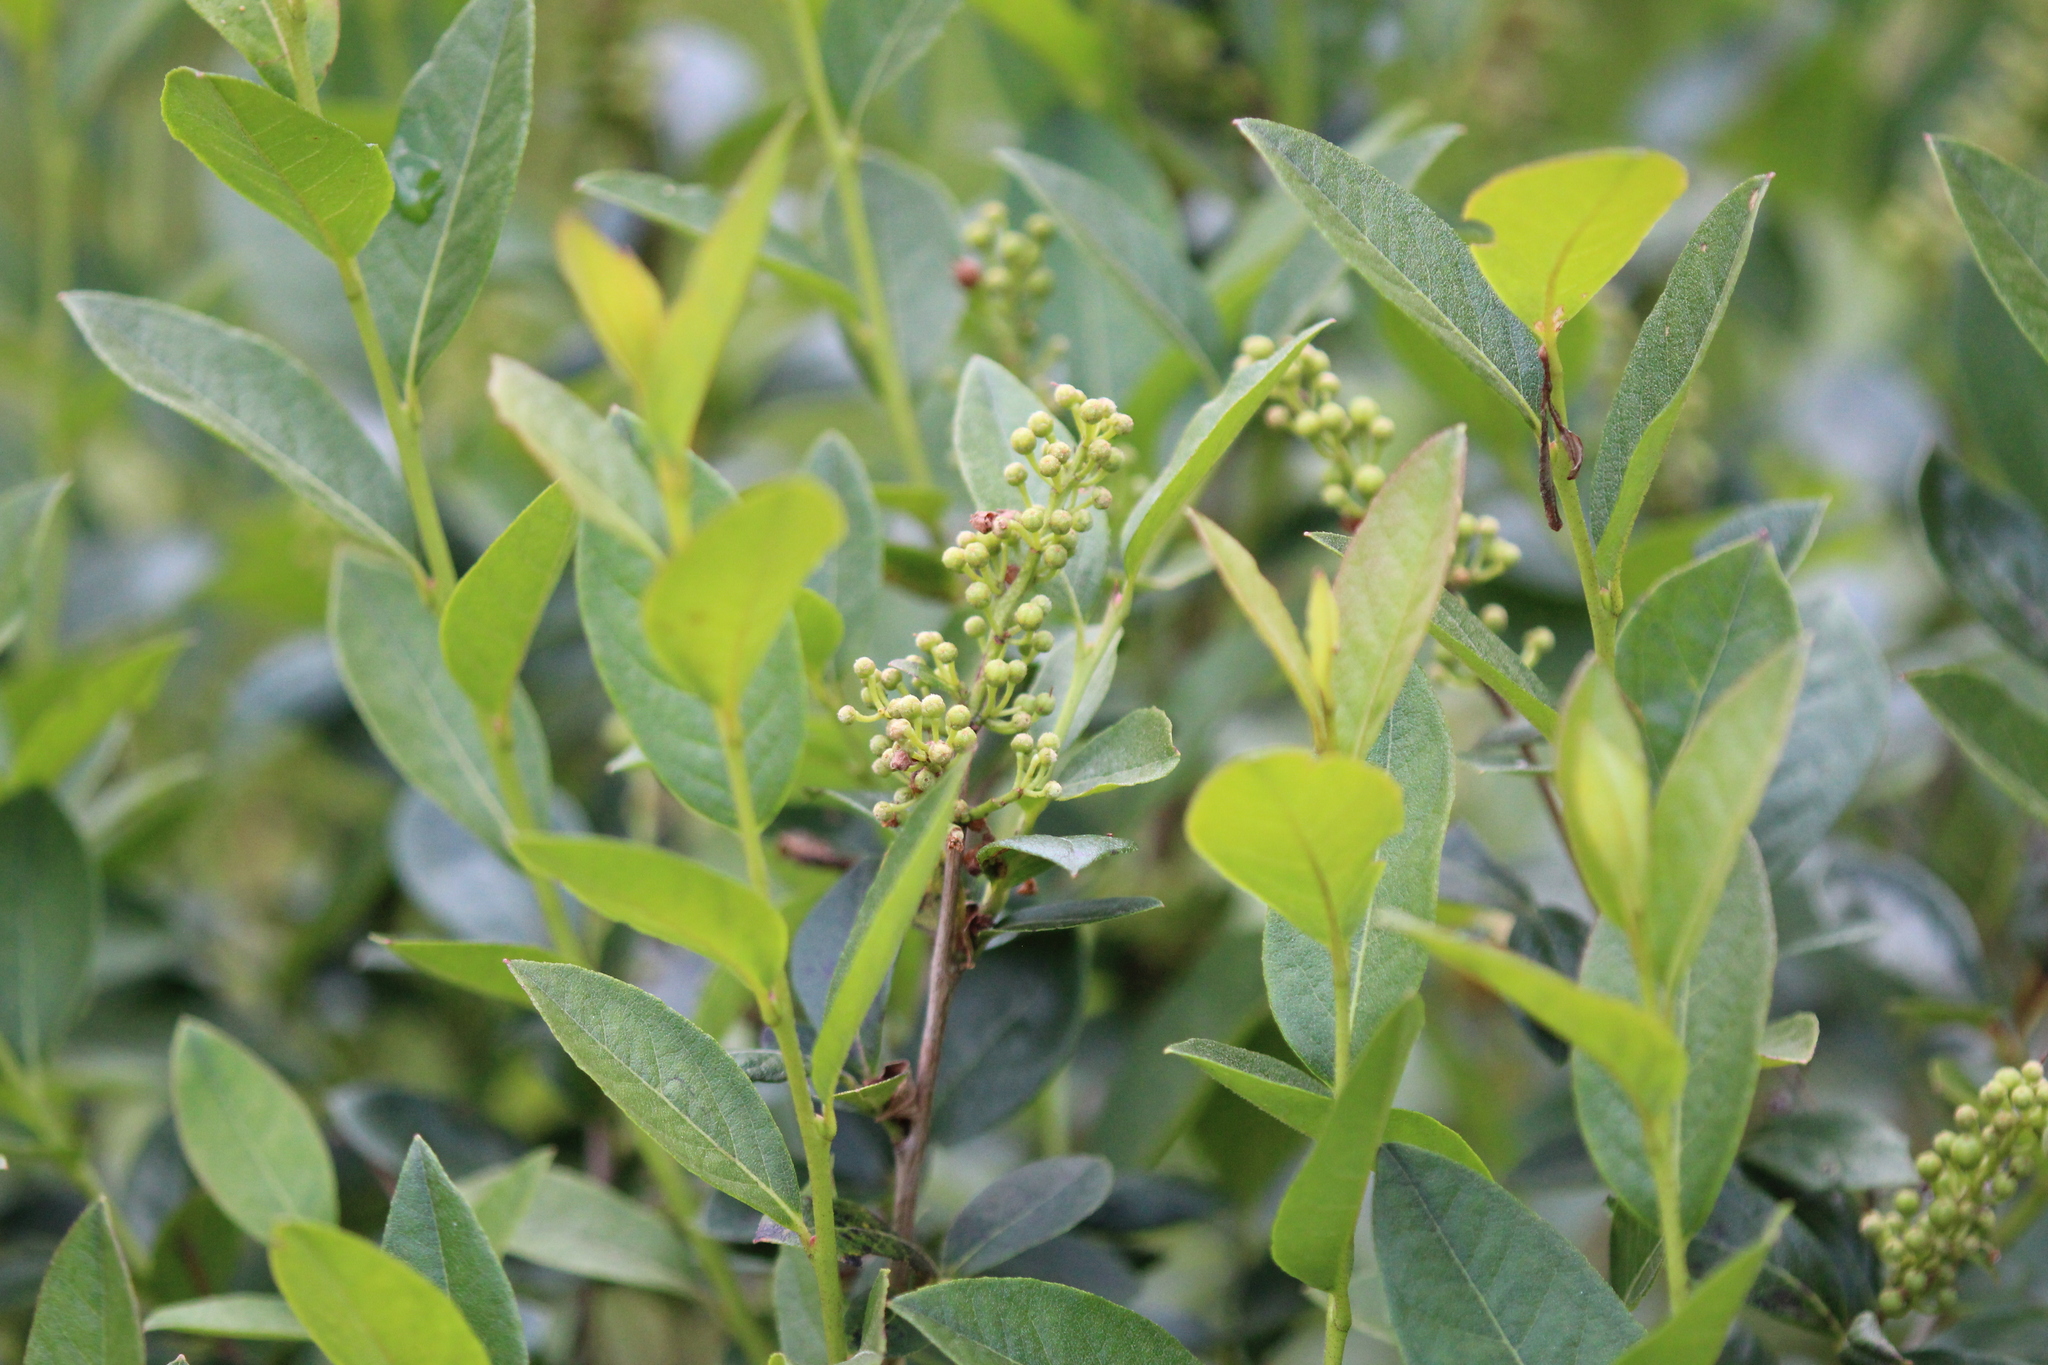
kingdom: Plantae
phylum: Tracheophyta
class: Magnoliopsida
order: Ericales
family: Ericaceae
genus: Lyonia
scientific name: Lyonia ligustrina
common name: Maleberry
